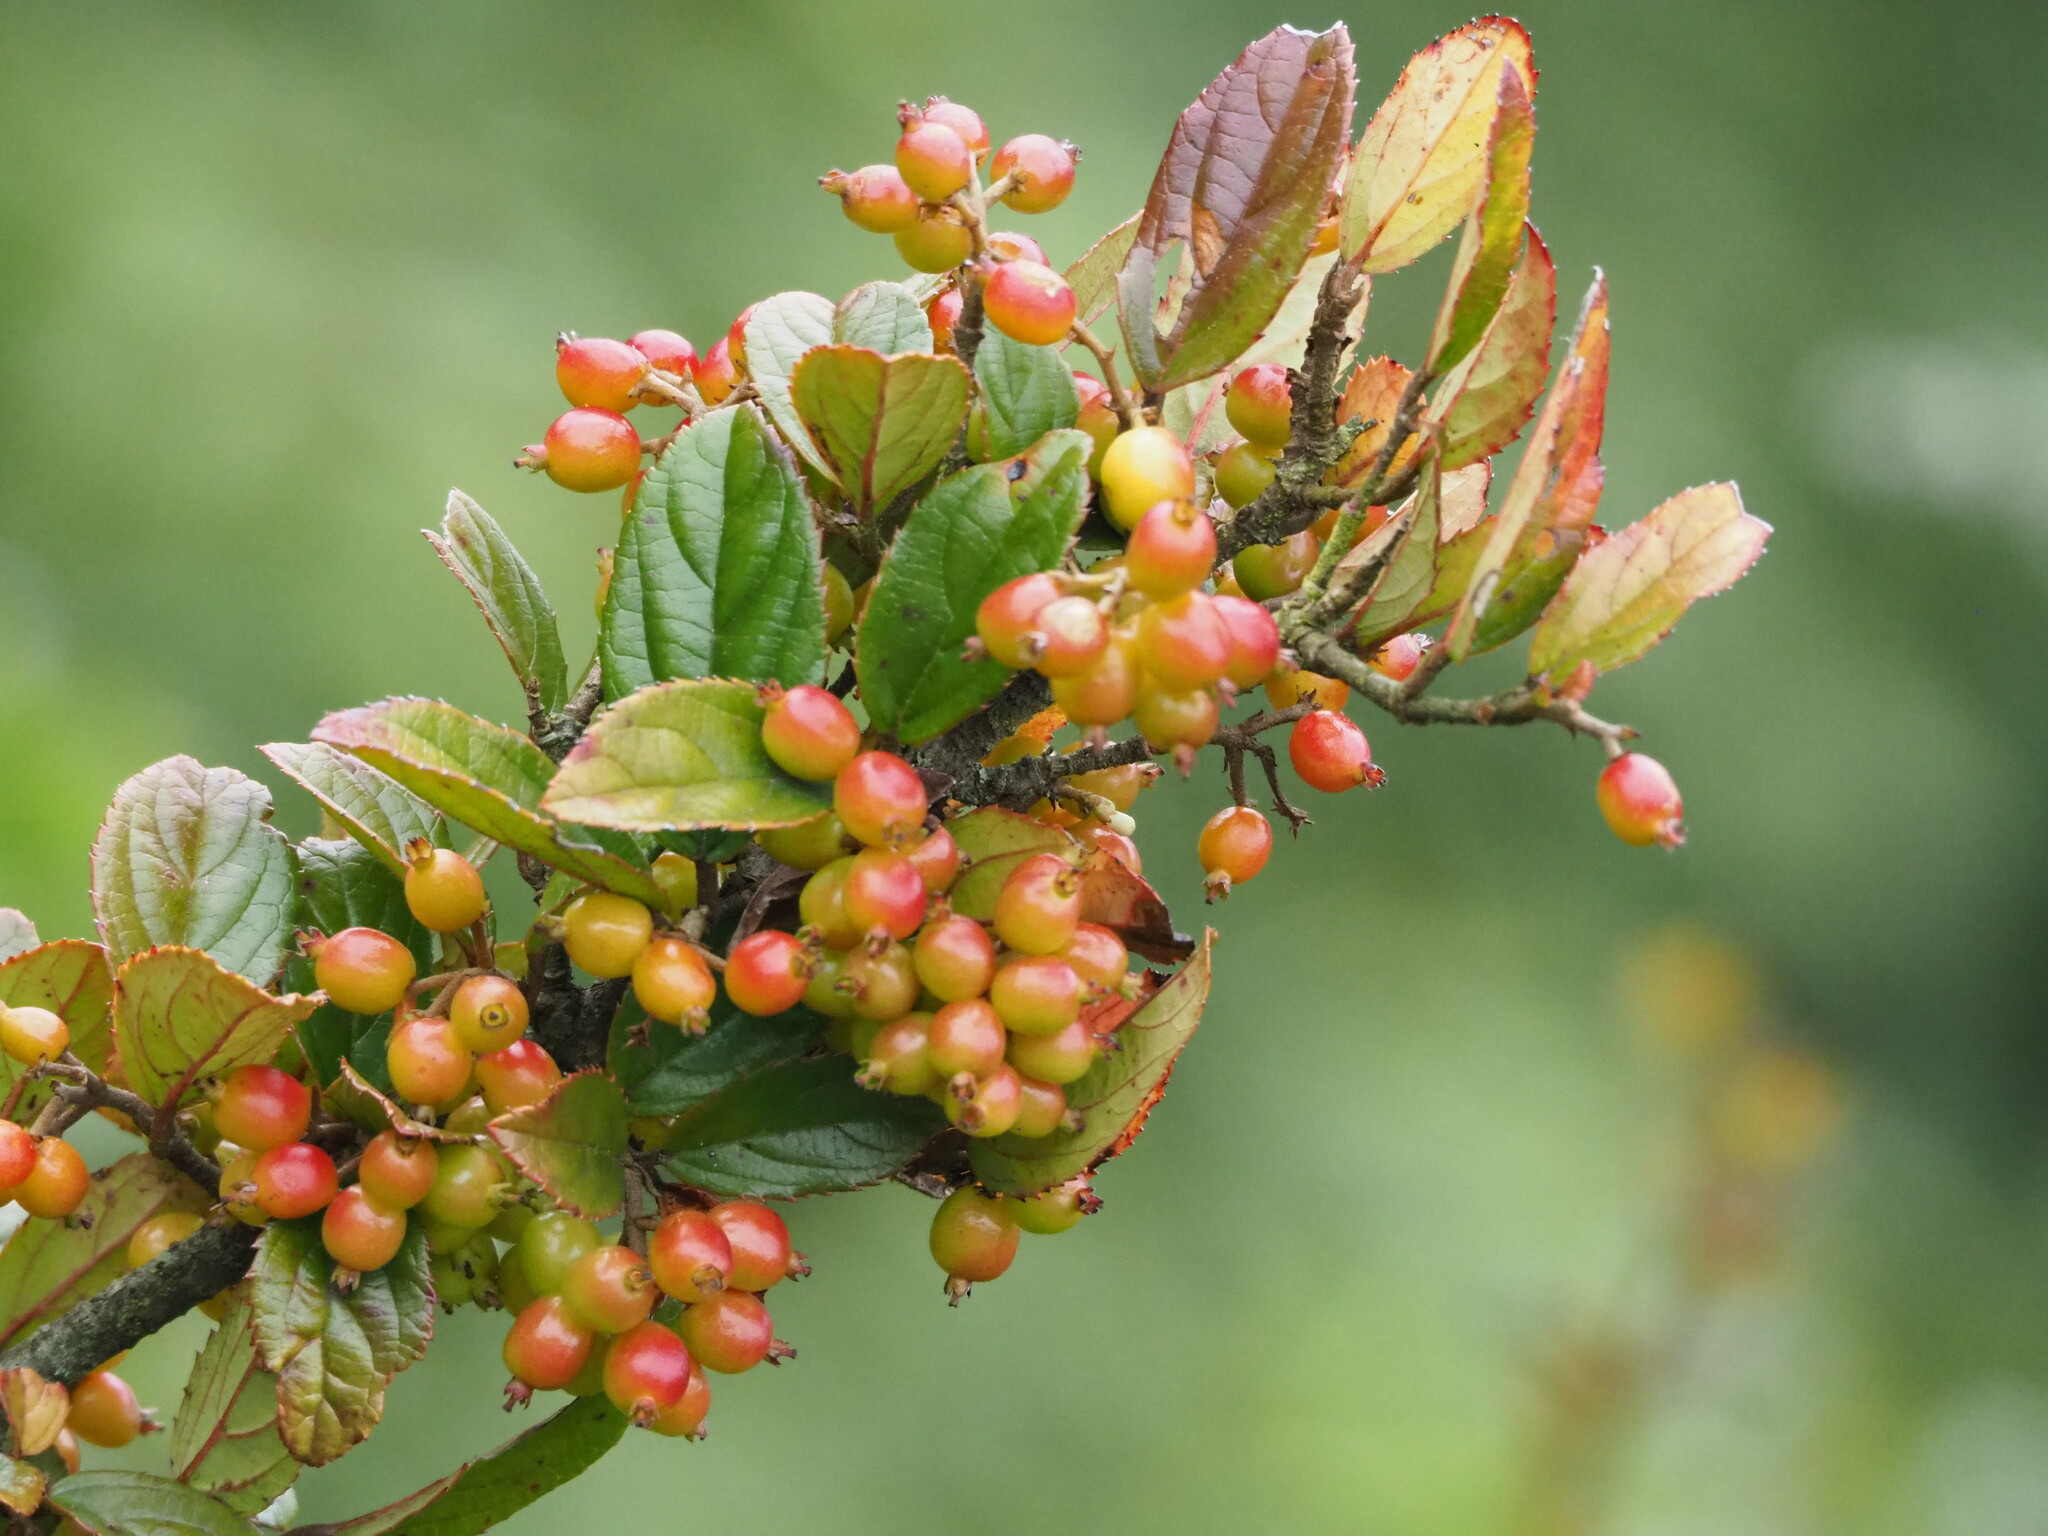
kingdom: Plantae
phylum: Tracheophyta
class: Magnoliopsida
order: Dipsacales
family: Viburnaceae
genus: Viburnum
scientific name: Viburnum taitoense
